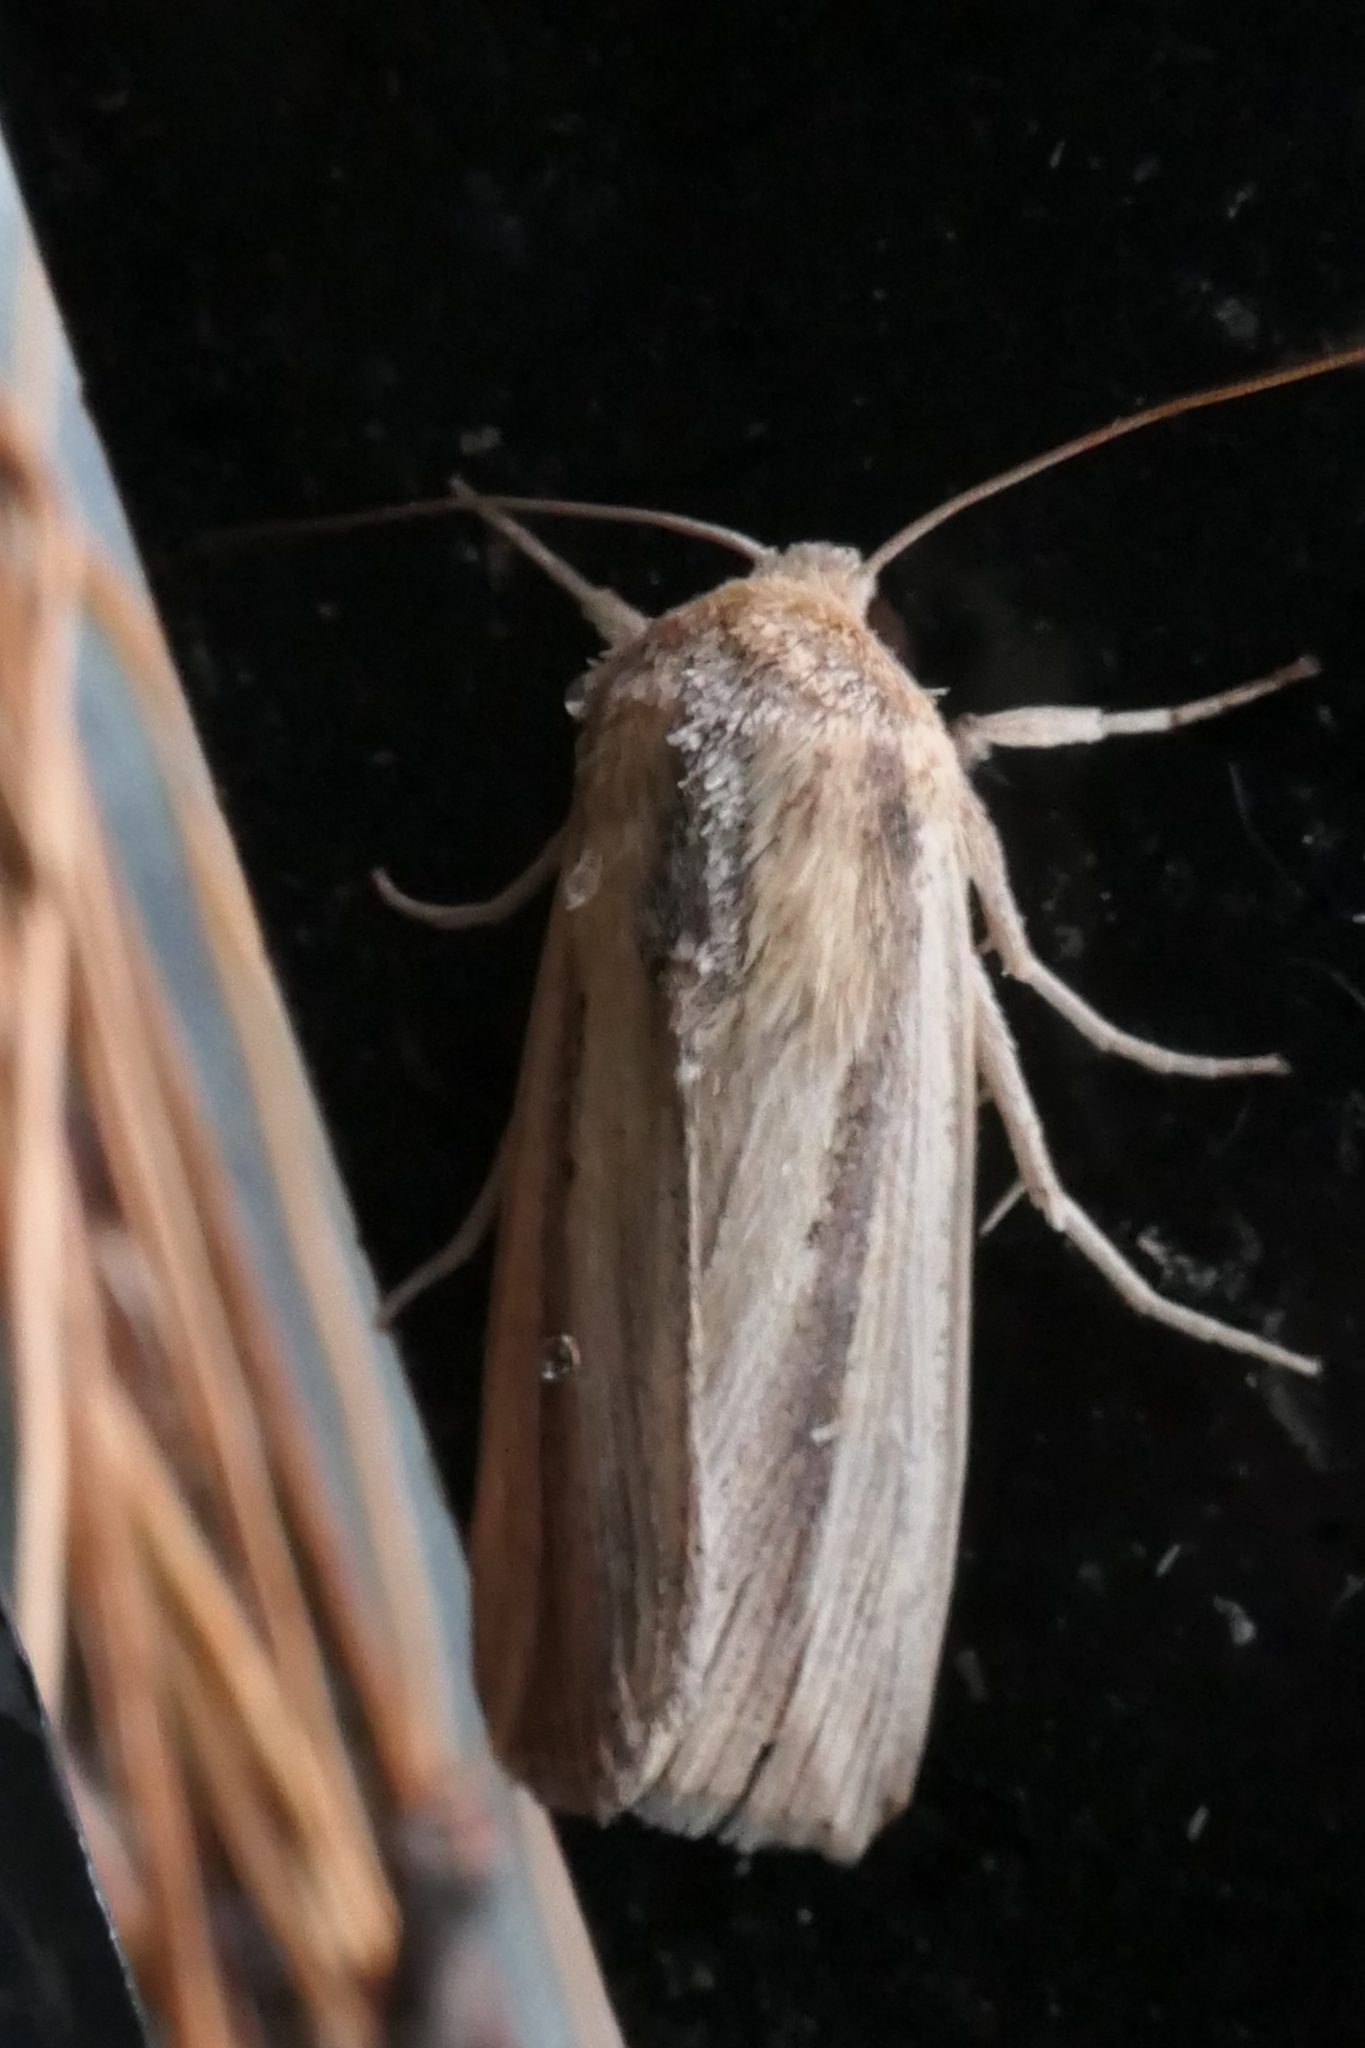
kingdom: Animalia
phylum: Arthropoda
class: Insecta
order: Lepidoptera
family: Noctuidae
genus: Leucania
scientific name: Leucania stenographa
